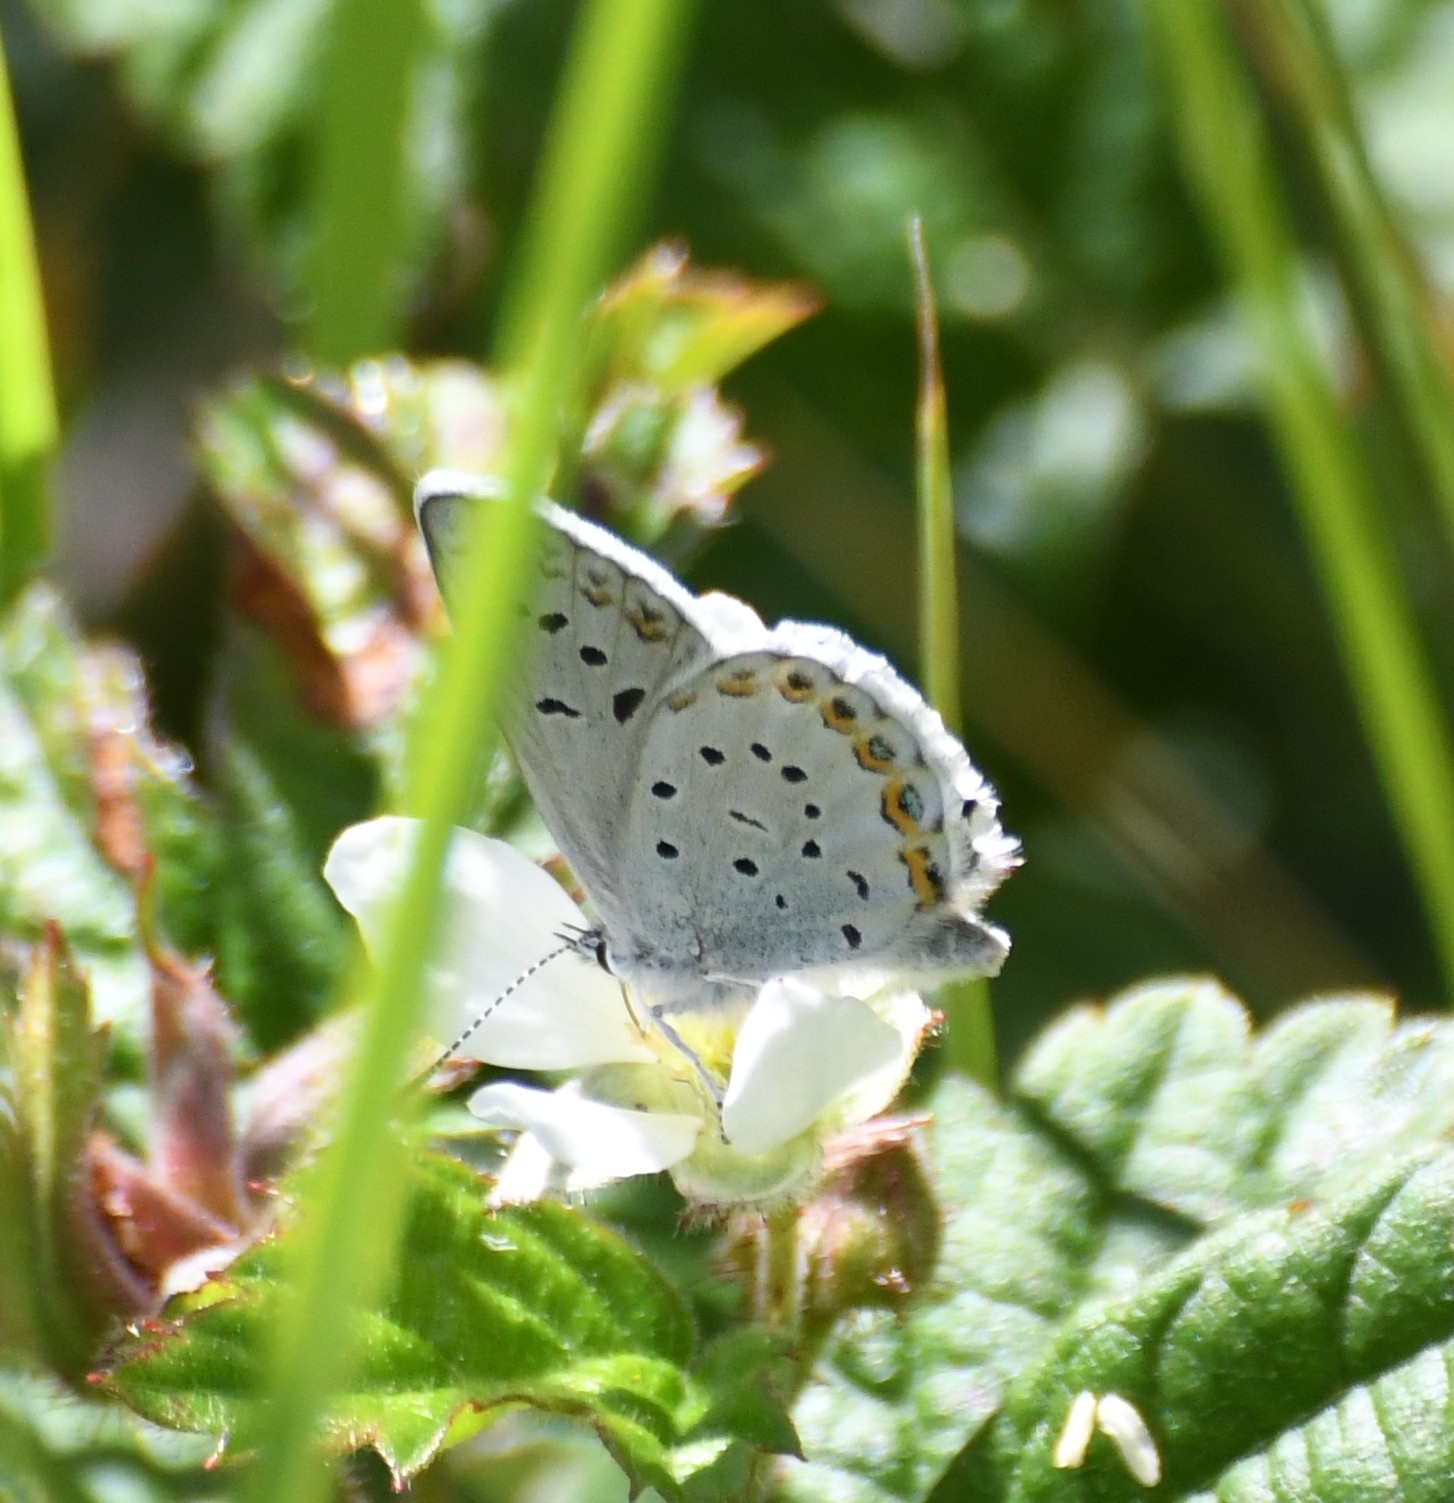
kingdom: Animalia
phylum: Arthropoda
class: Insecta
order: Lepidoptera
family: Lycaenidae
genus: Lycaeides
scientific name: Lycaeides anna
